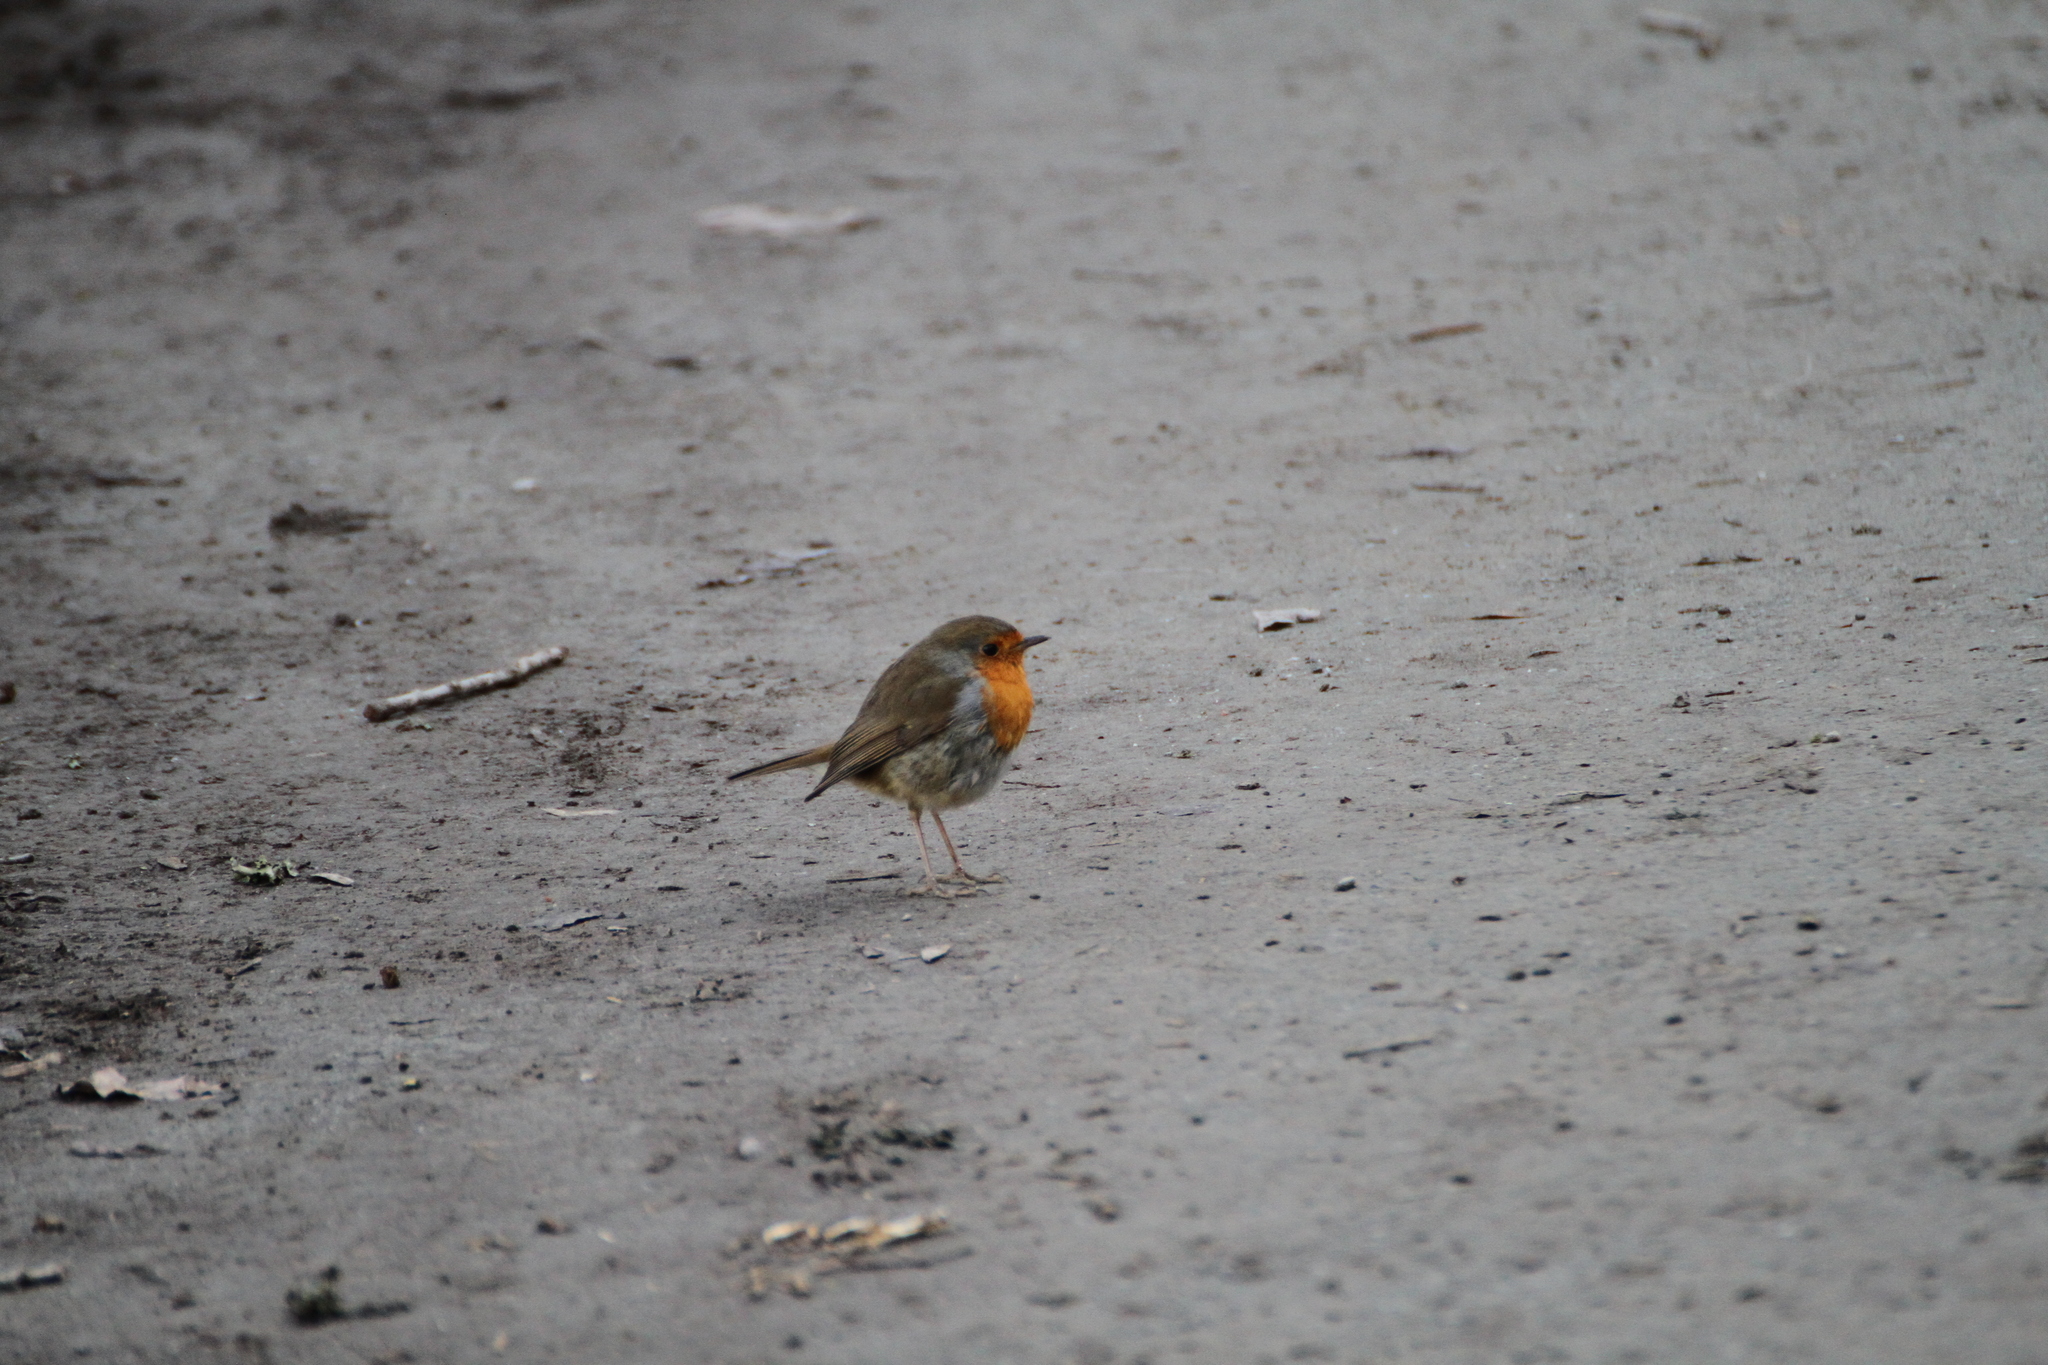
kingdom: Animalia
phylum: Chordata
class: Aves
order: Passeriformes
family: Muscicapidae
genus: Erithacus
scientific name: Erithacus rubecula
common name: European robin
